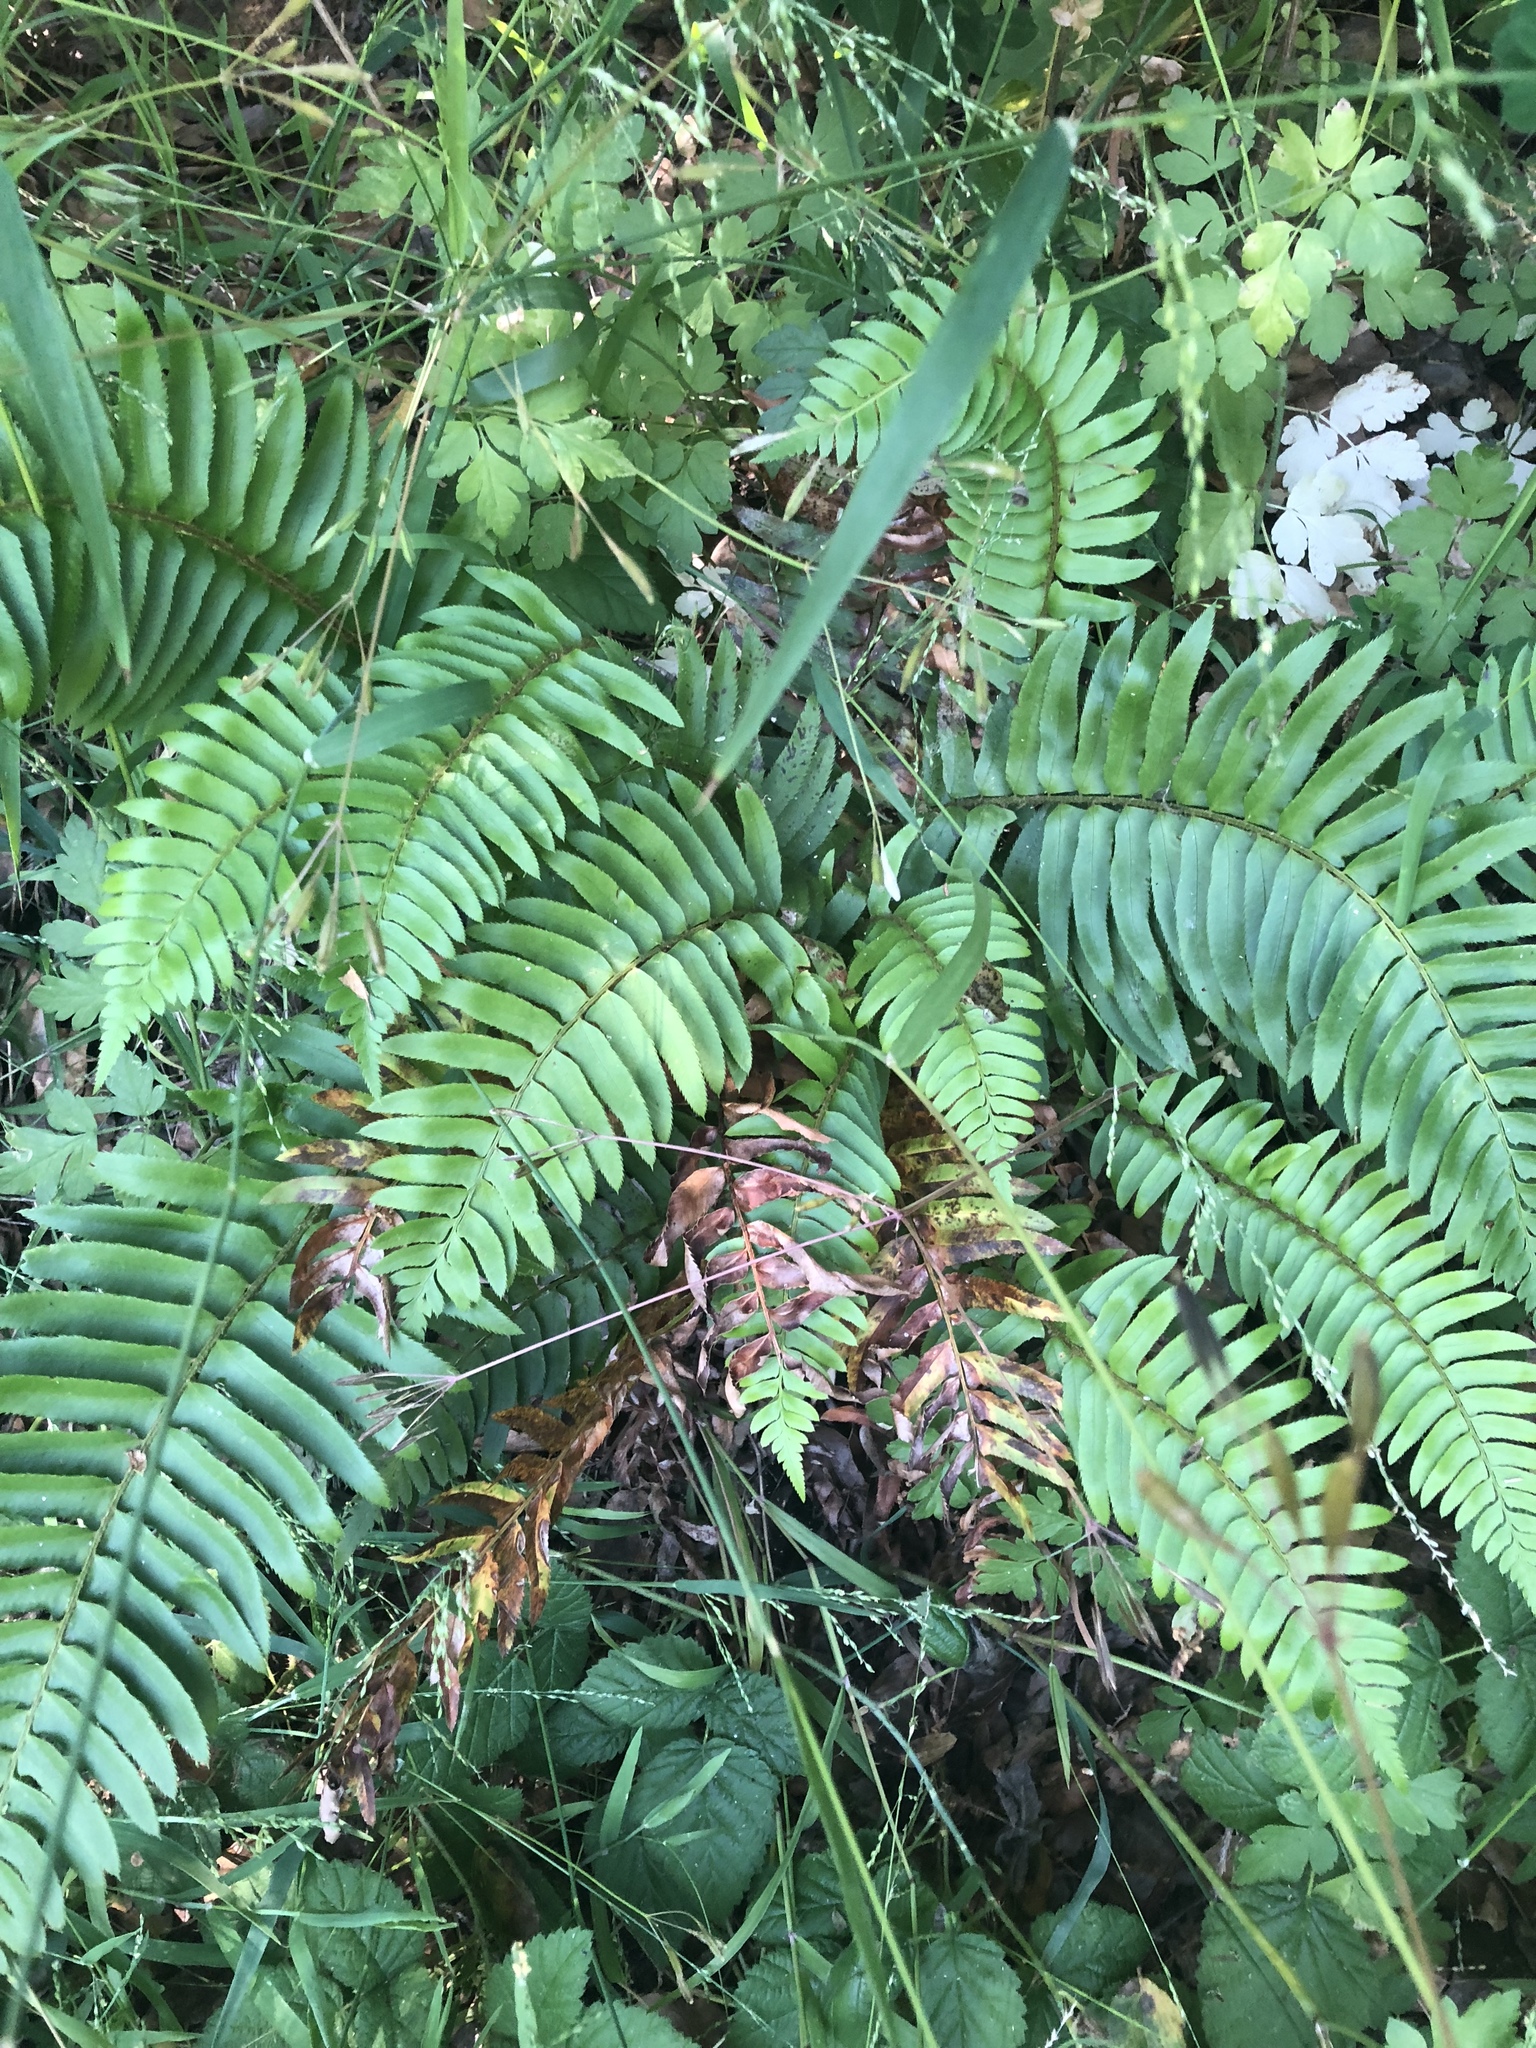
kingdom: Plantae
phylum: Tracheophyta
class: Polypodiopsida
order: Polypodiales
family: Dryopteridaceae
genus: Polystichum
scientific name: Polystichum munitum
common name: Western sword-fern
